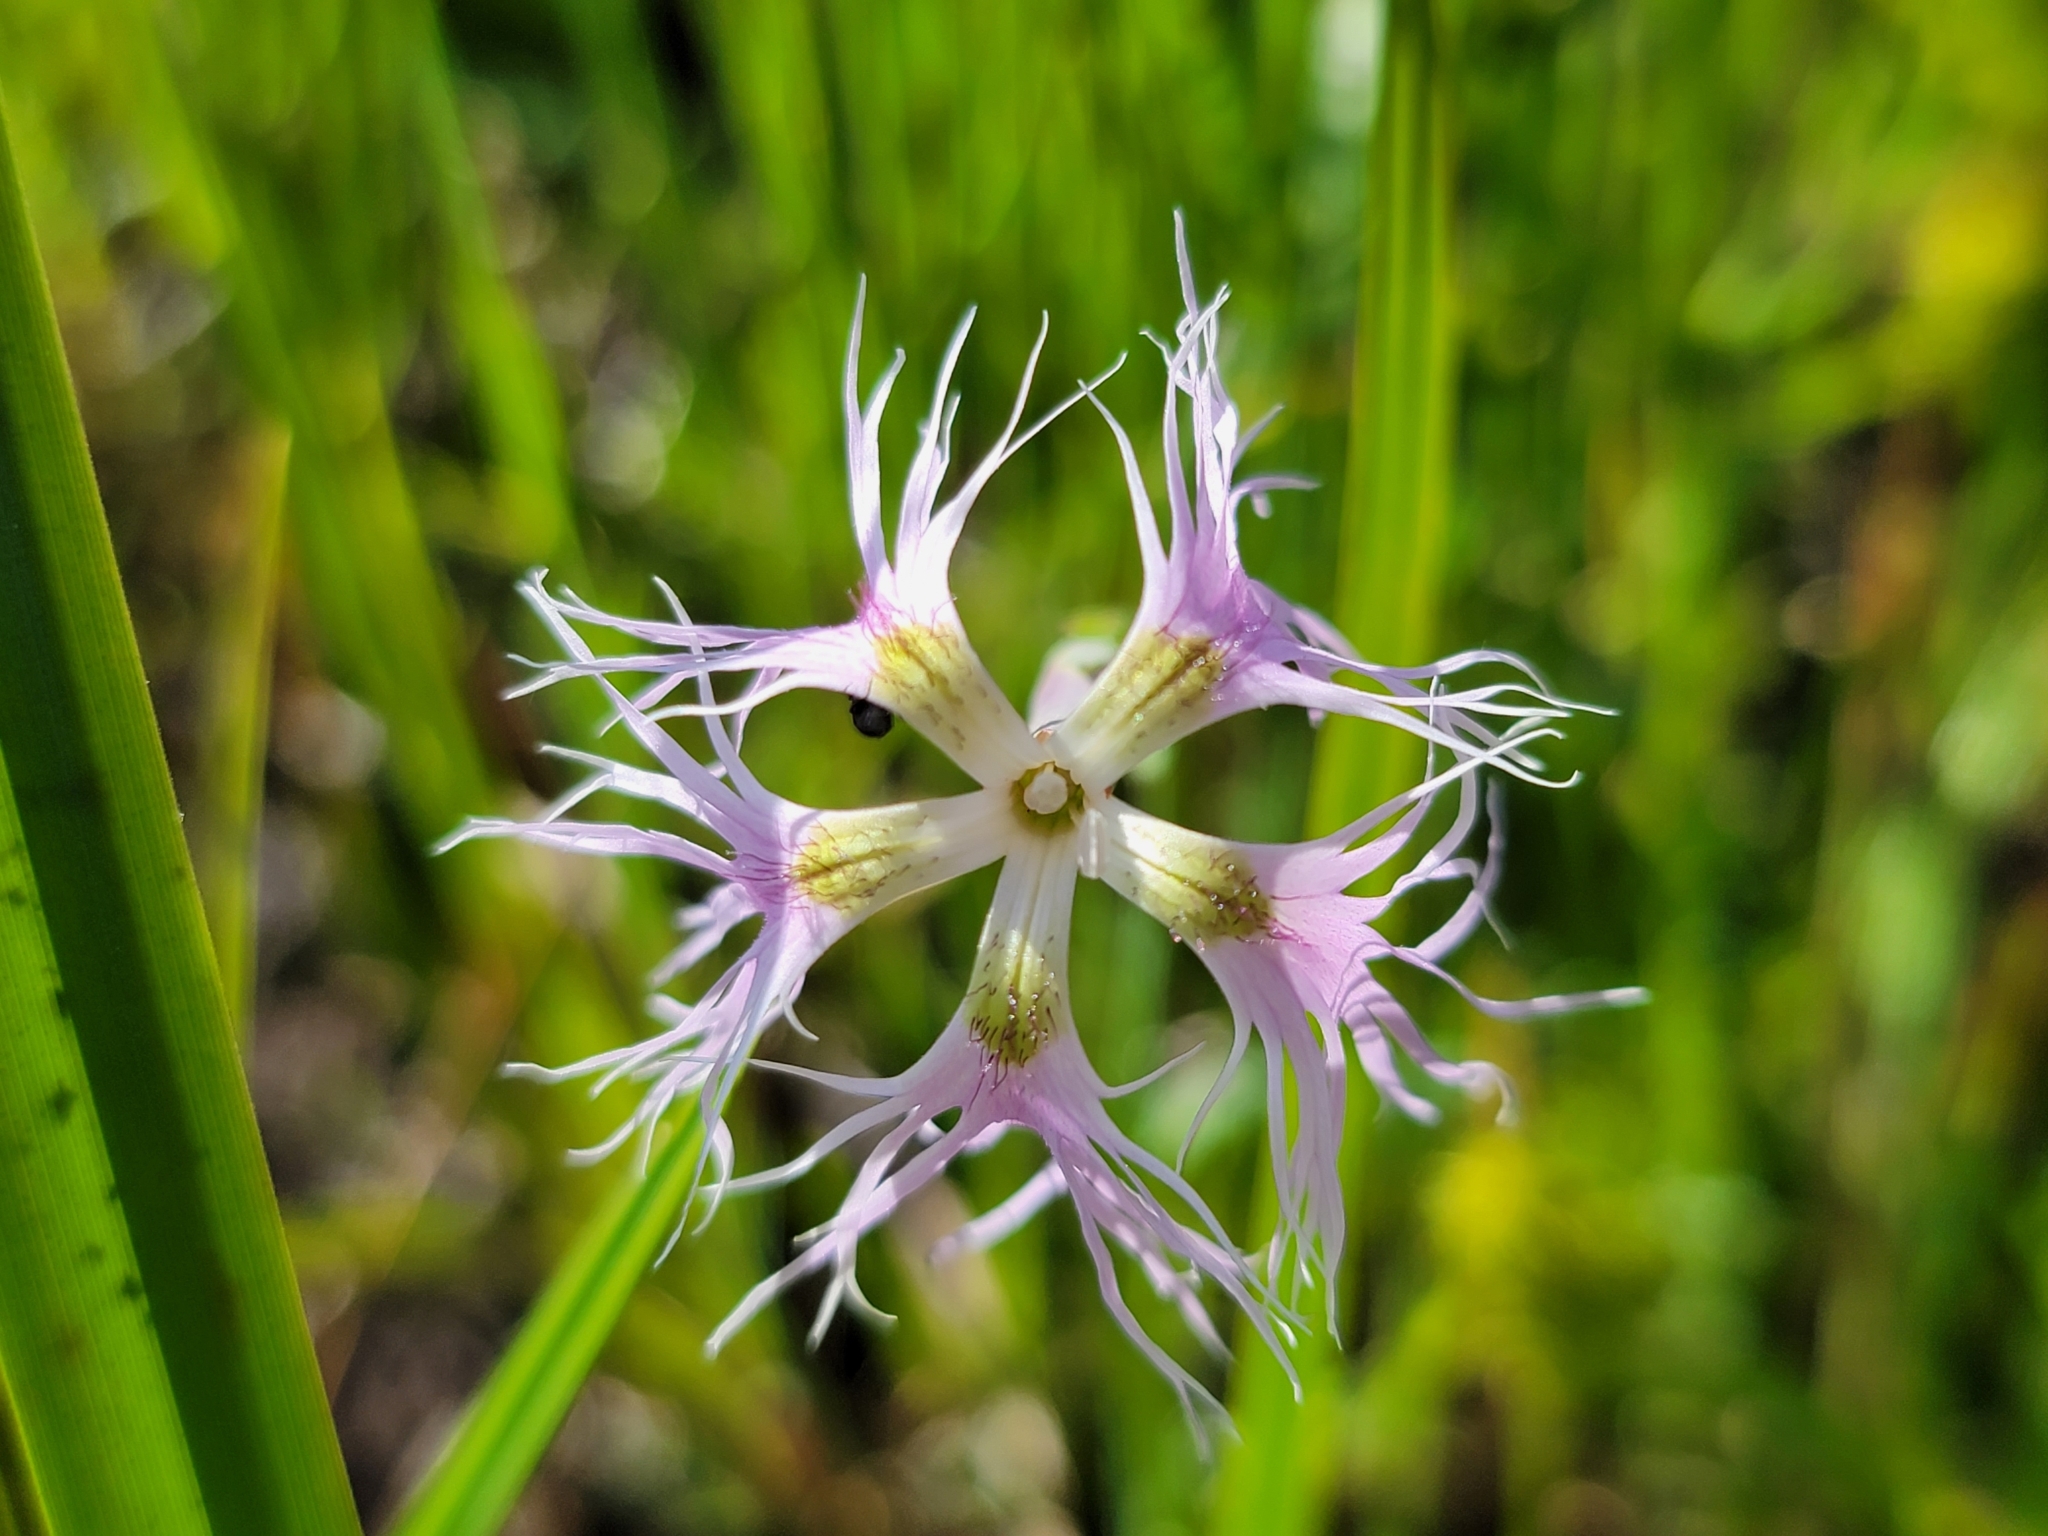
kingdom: Plantae
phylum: Tracheophyta
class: Magnoliopsida
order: Caryophyllales
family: Caryophyllaceae
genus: Dianthus
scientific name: Dianthus superbus
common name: Fringed pink
